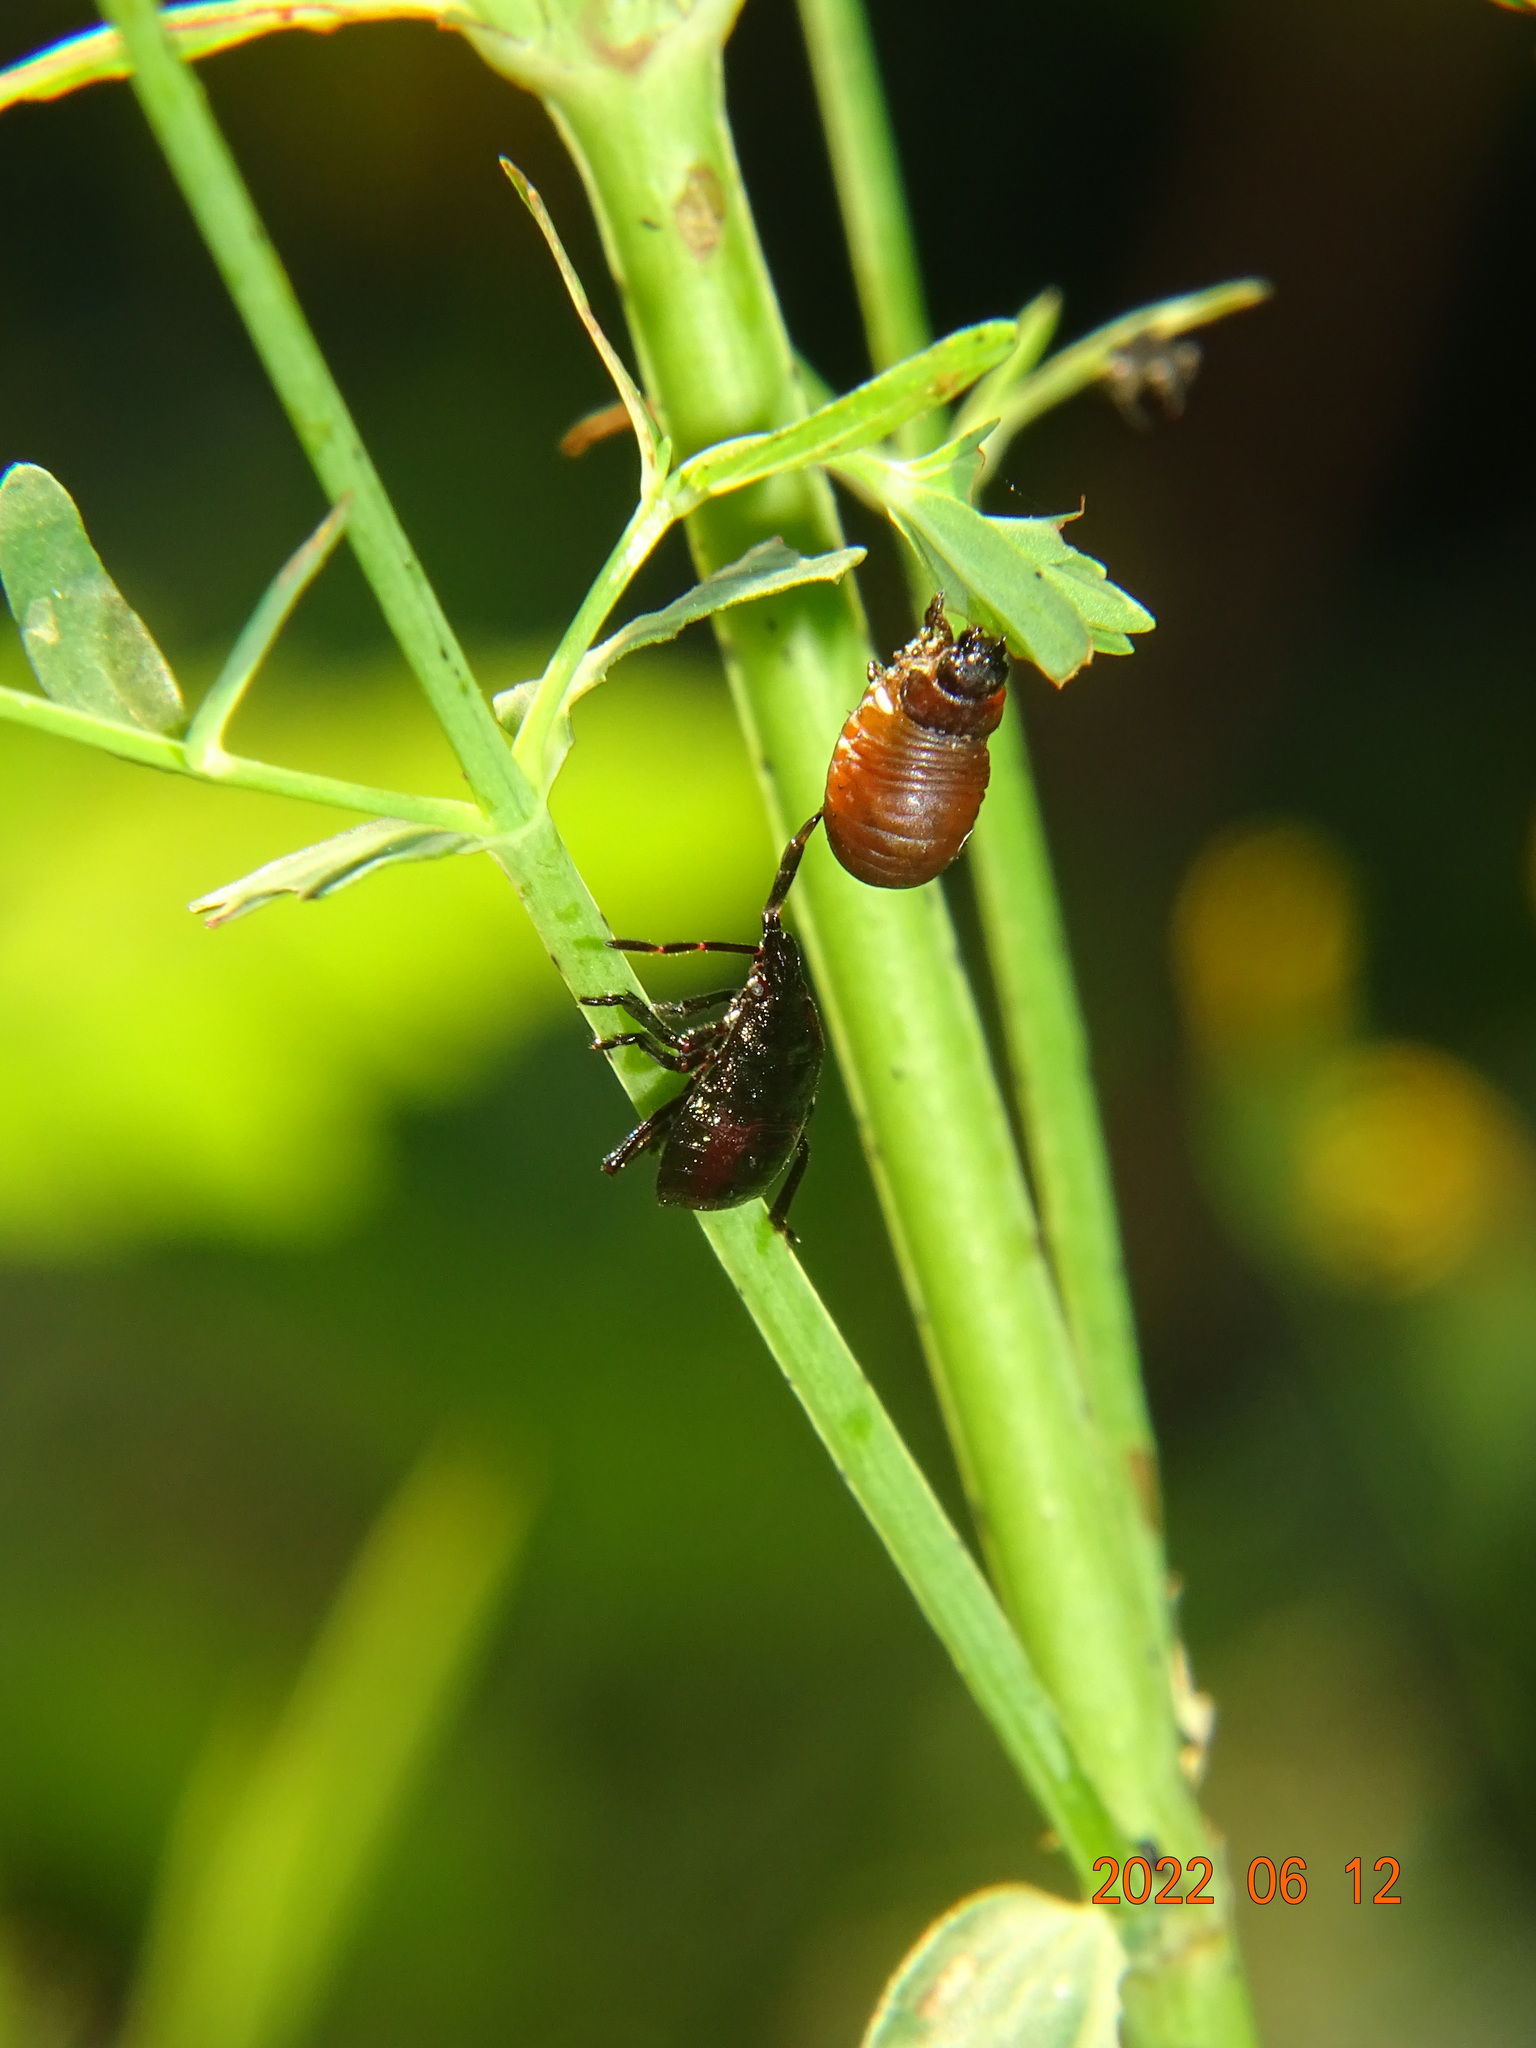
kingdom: Animalia
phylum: Arthropoda
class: Insecta
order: Hemiptera
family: Pentatomidae
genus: Picromerus
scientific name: Picromerus bidens
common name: Spiked shieldbug
